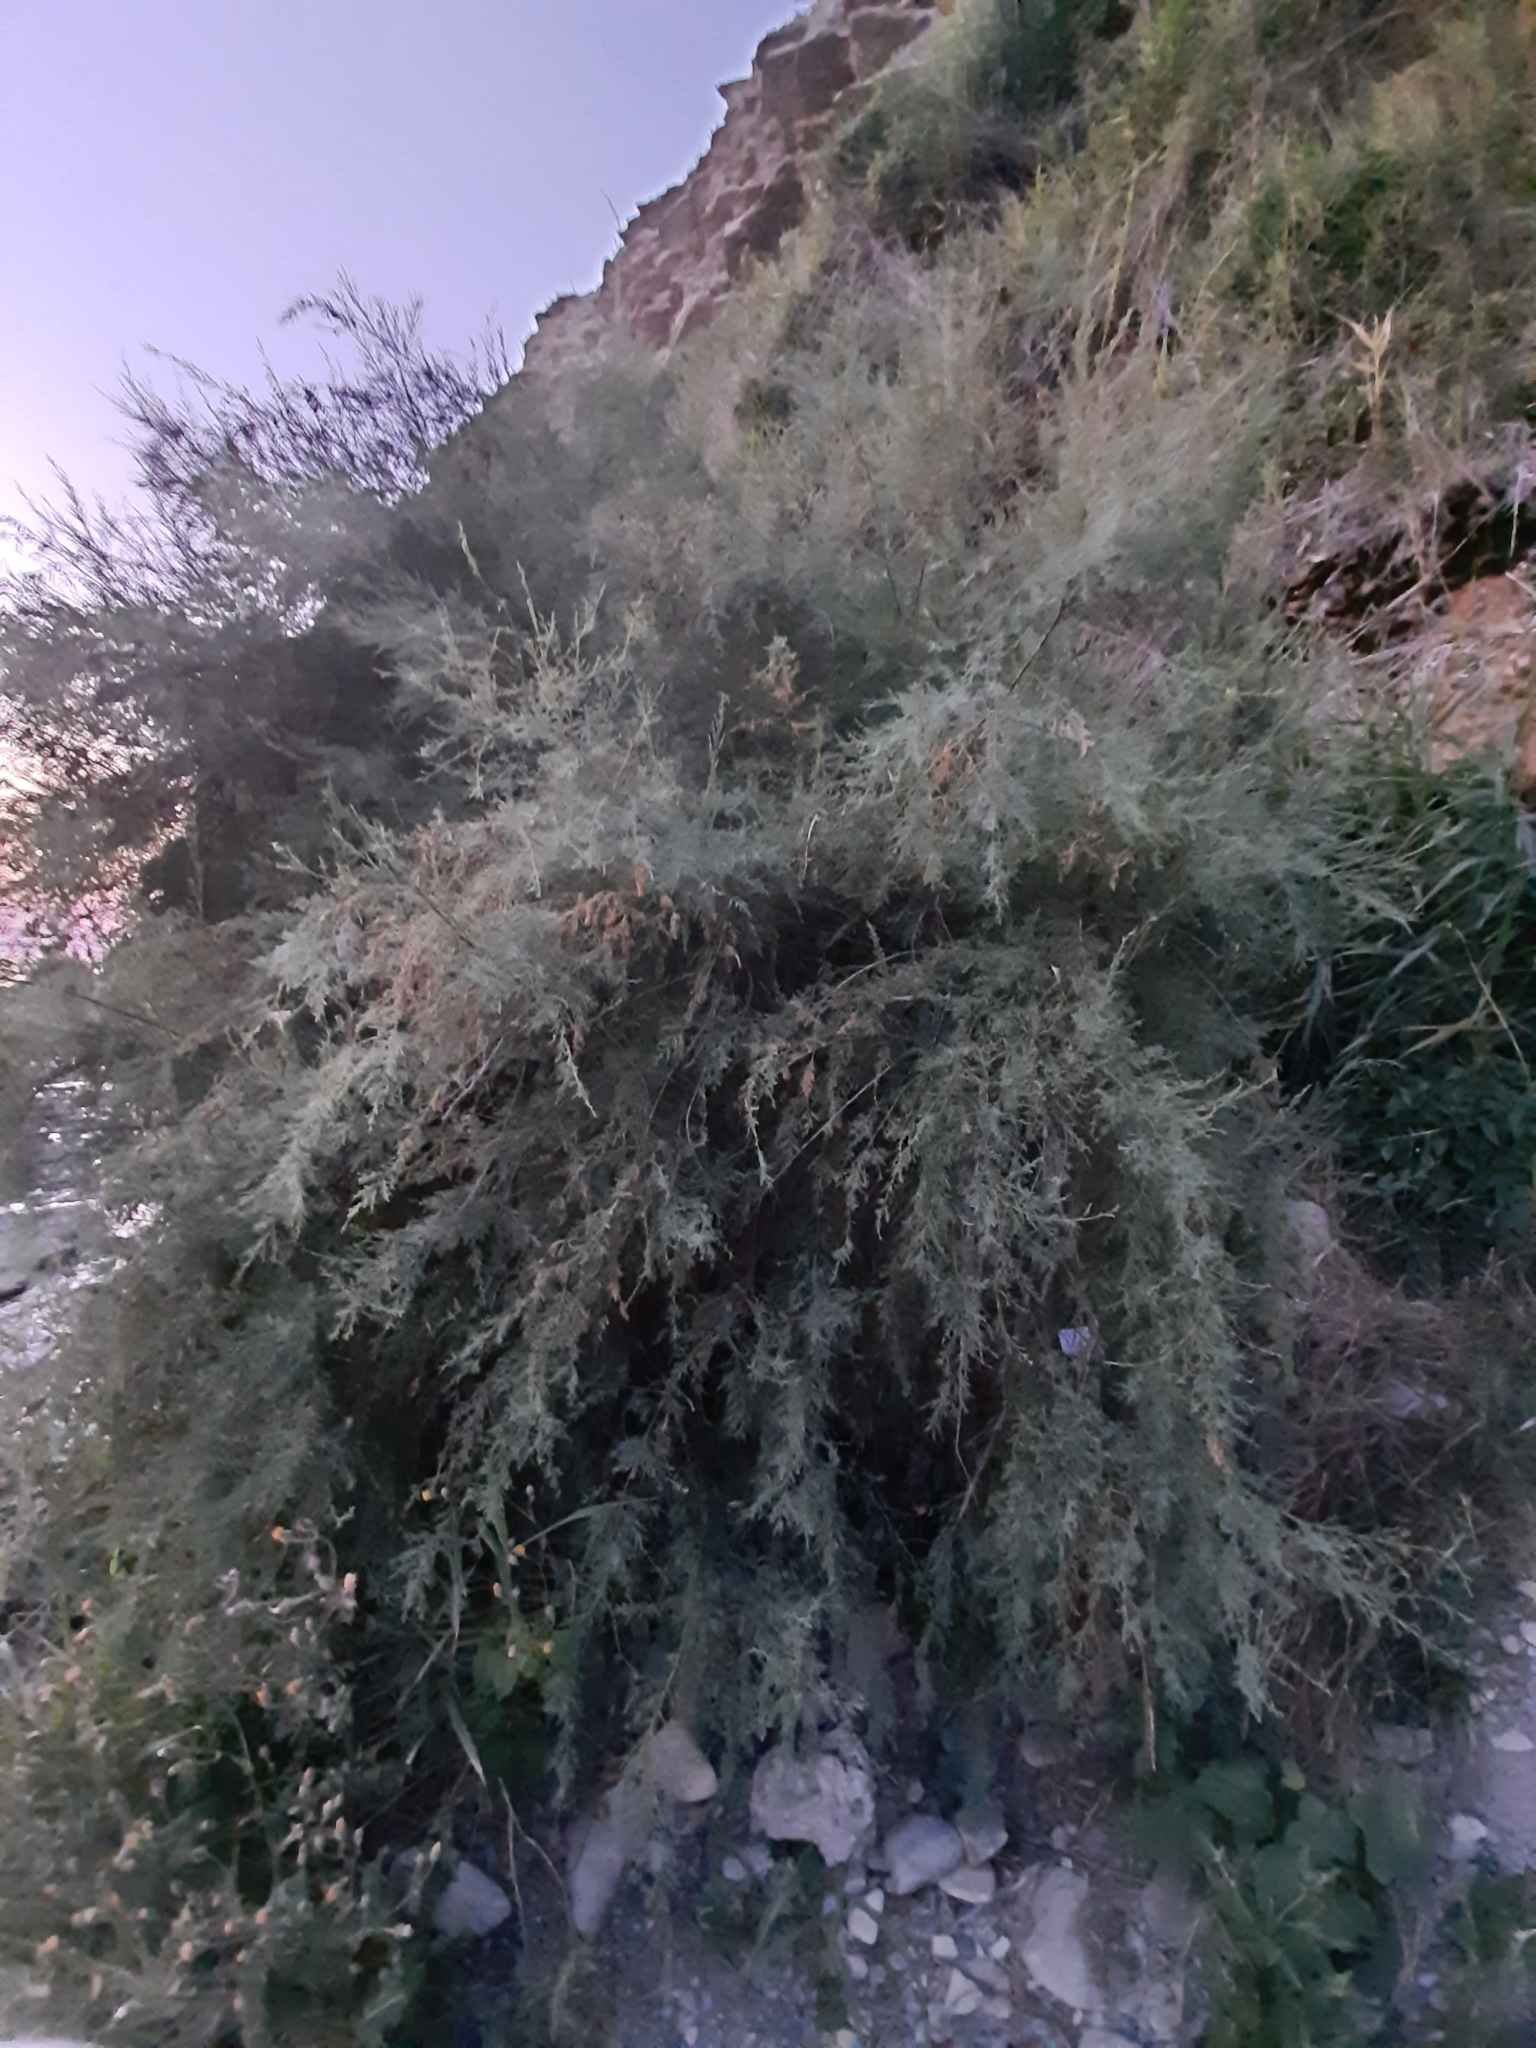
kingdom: Plantae
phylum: Tracheophyta
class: Magnoliopsida
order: Caryophyllales
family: Tamaricaceae
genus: Tamarix
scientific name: Tamarix ramosissima
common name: Pink tamarisk
